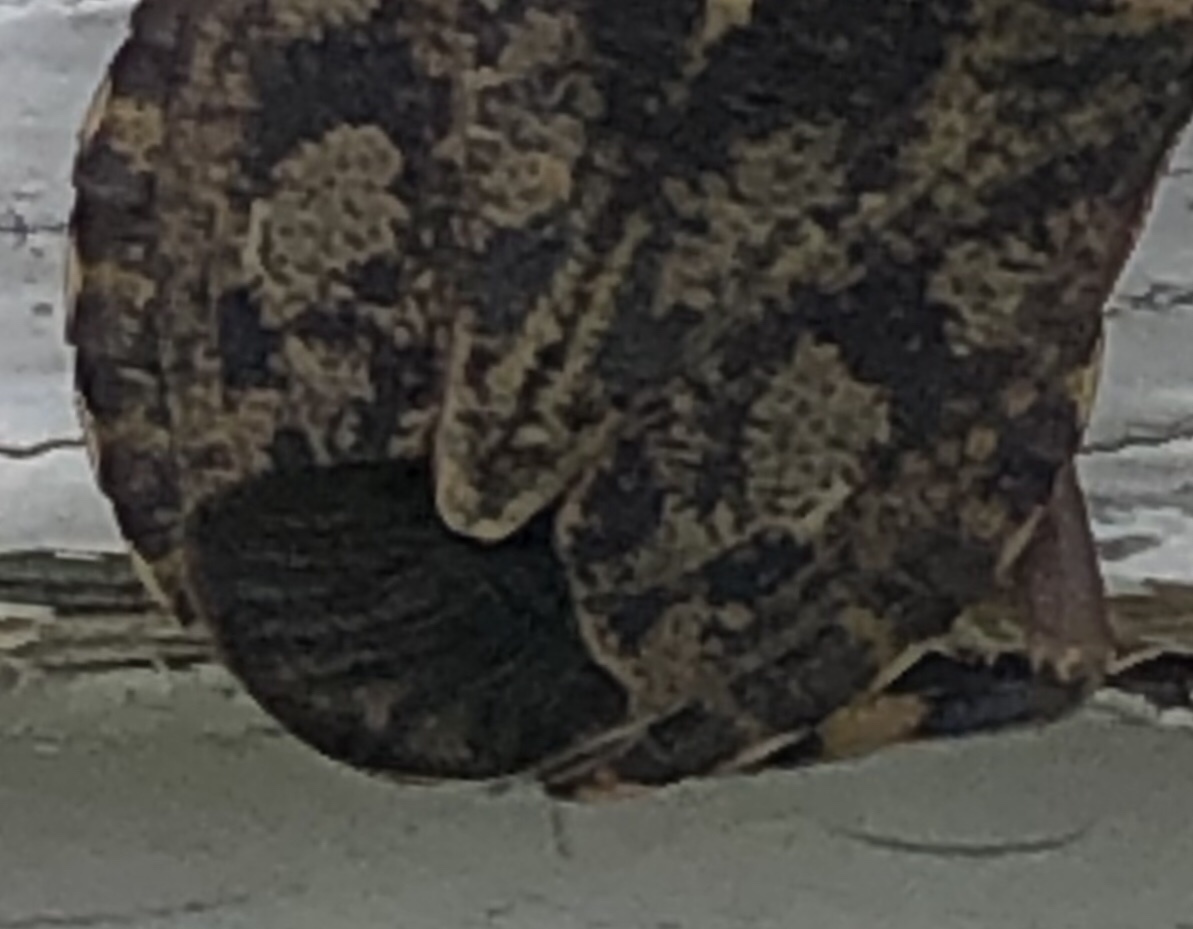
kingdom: Animalia
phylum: Arthropoda
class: Insecta
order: Hemiptera
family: Pentatomidae
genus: Coenomorpha
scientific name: Coenomorpha nervosa
